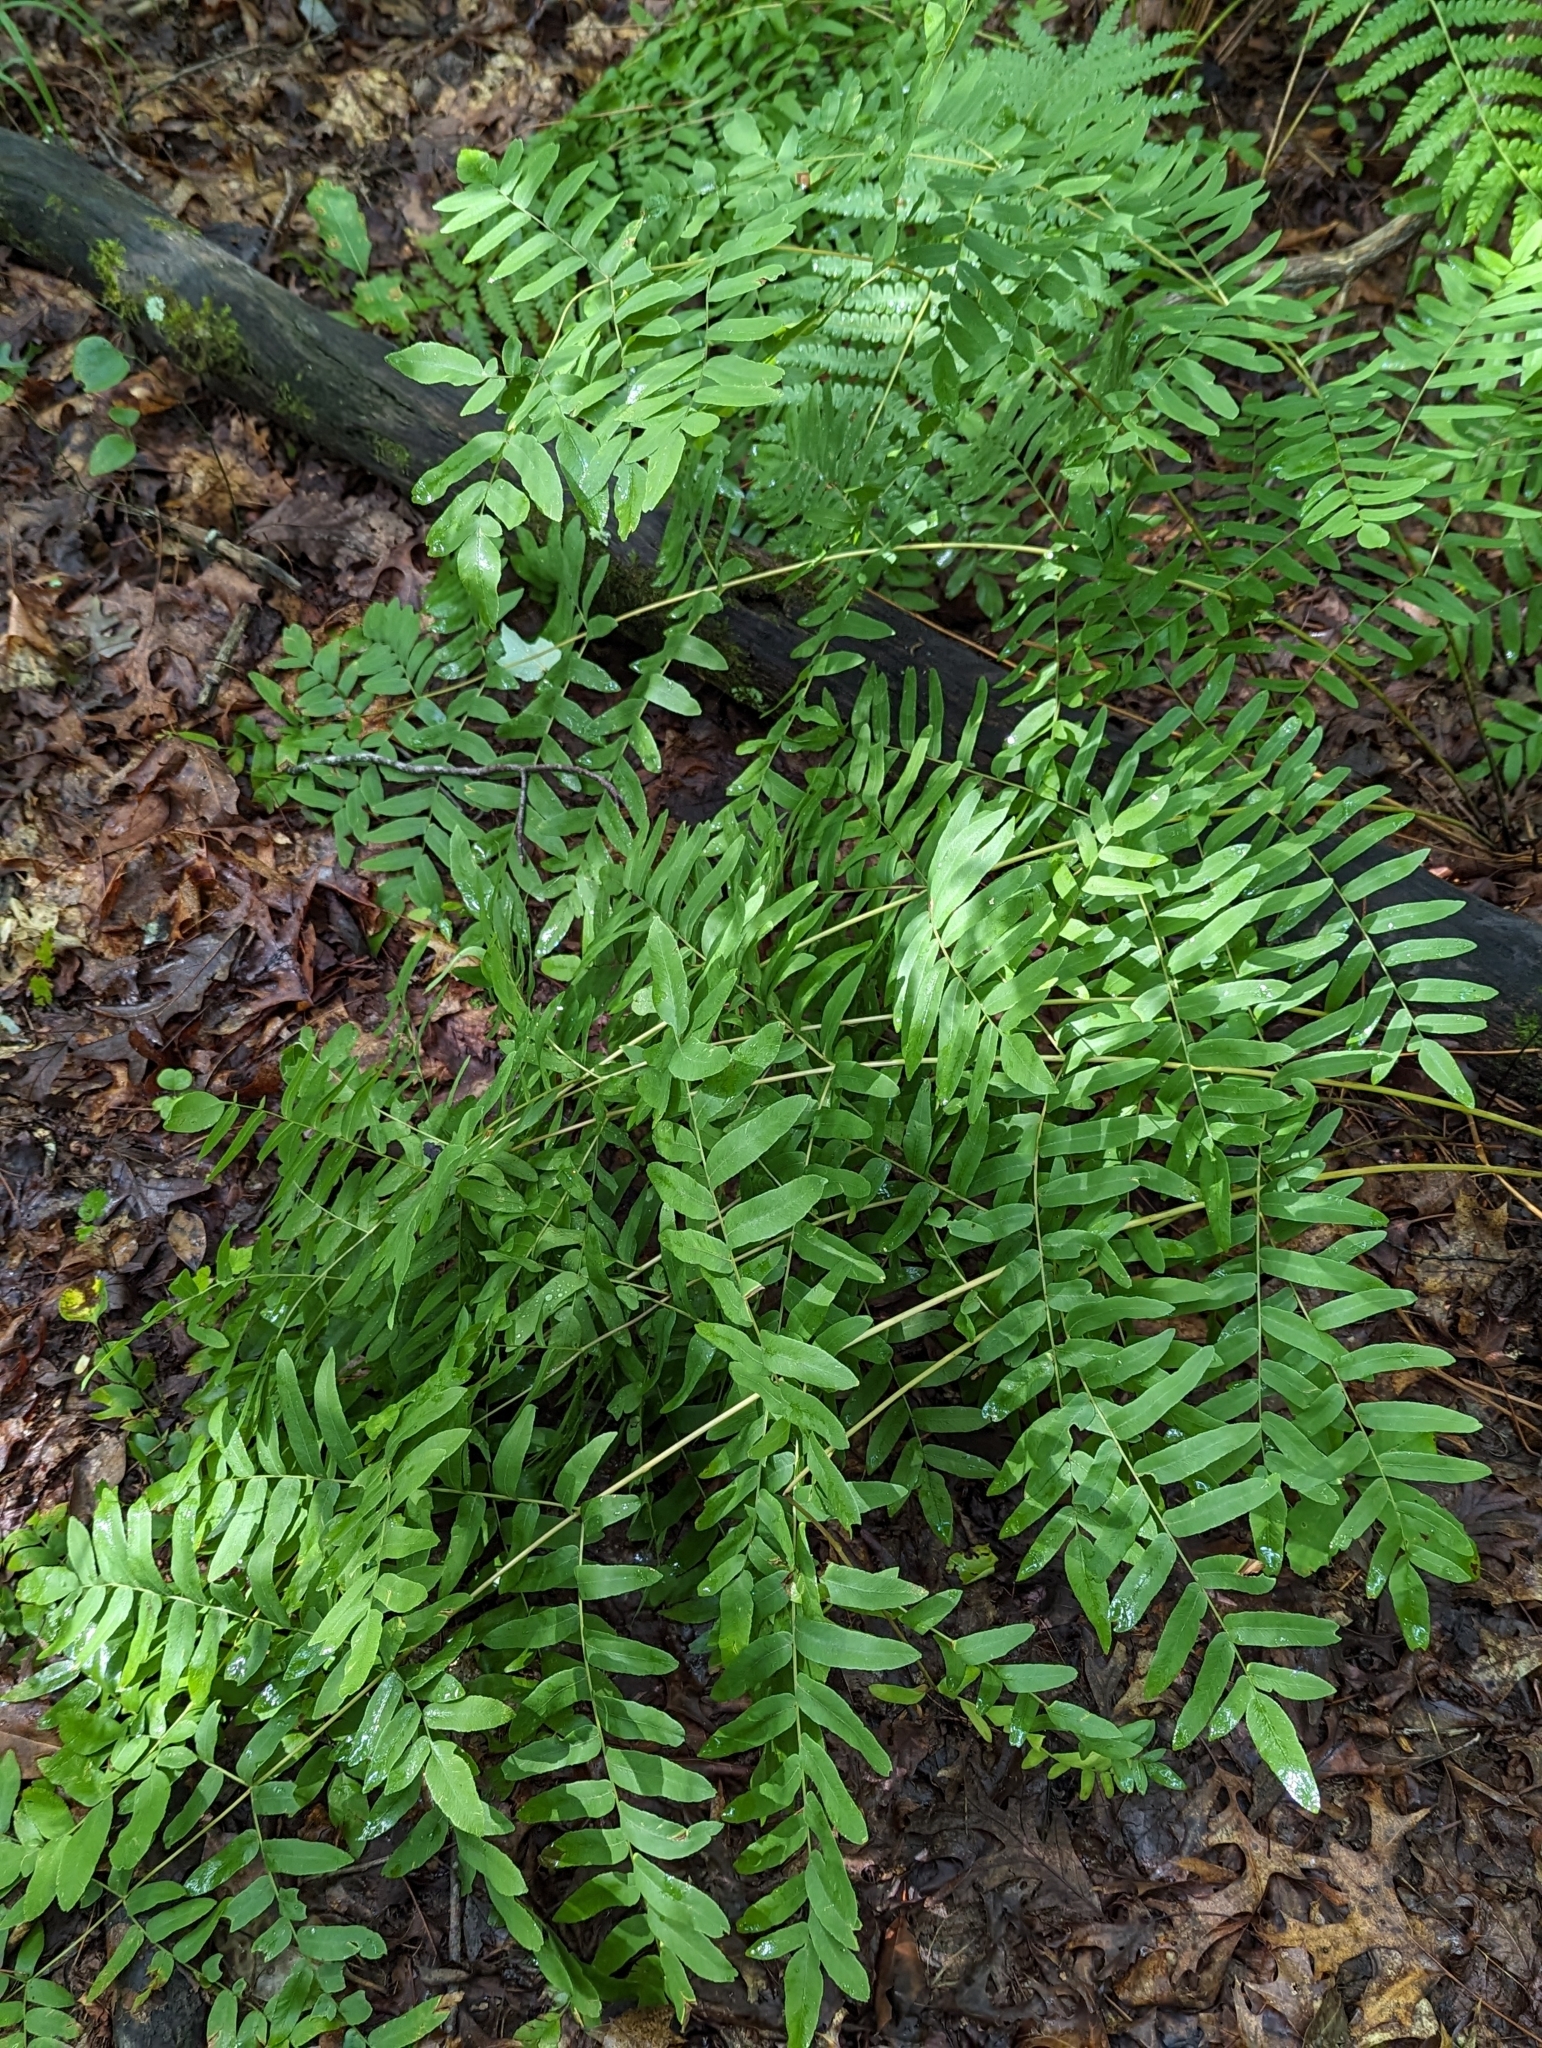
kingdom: Plantae
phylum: Tracheophyta
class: Polypodiopsida
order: Osmundales
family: Osmundaceae
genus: Osmunda
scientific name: Osmunda spectabilis
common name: American royal fern
